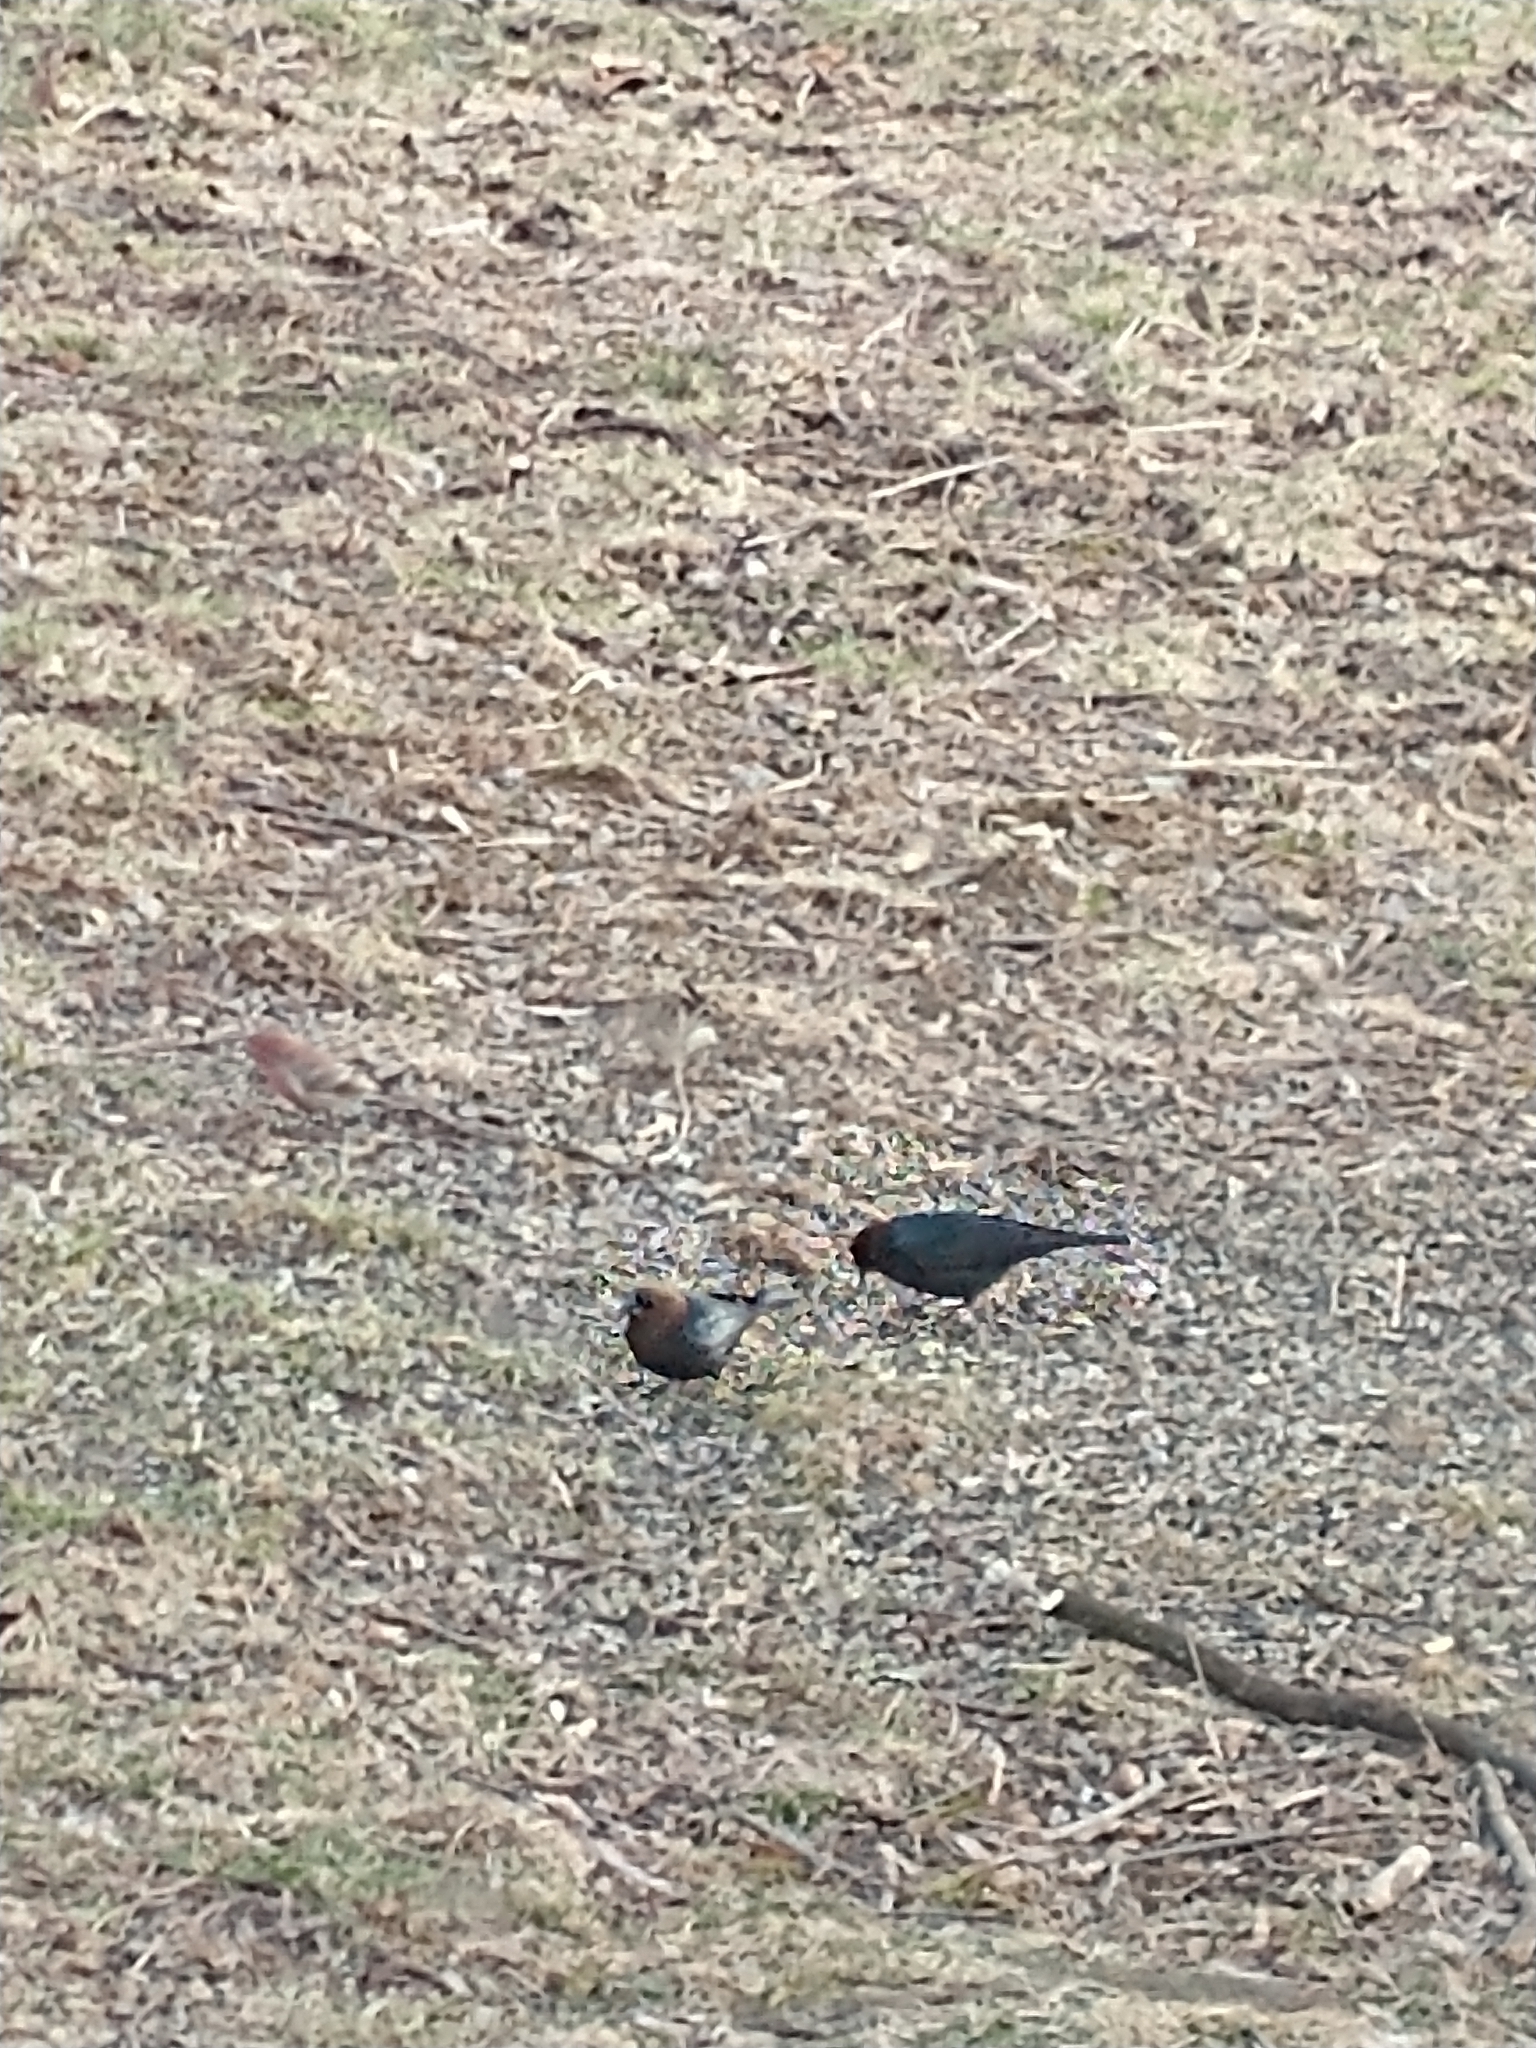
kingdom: Animalia
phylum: Chordata
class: Aves
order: Passeriformes
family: Icteridae
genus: Molothrus
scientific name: Molothrus ater
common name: Brown-headed cowbird
